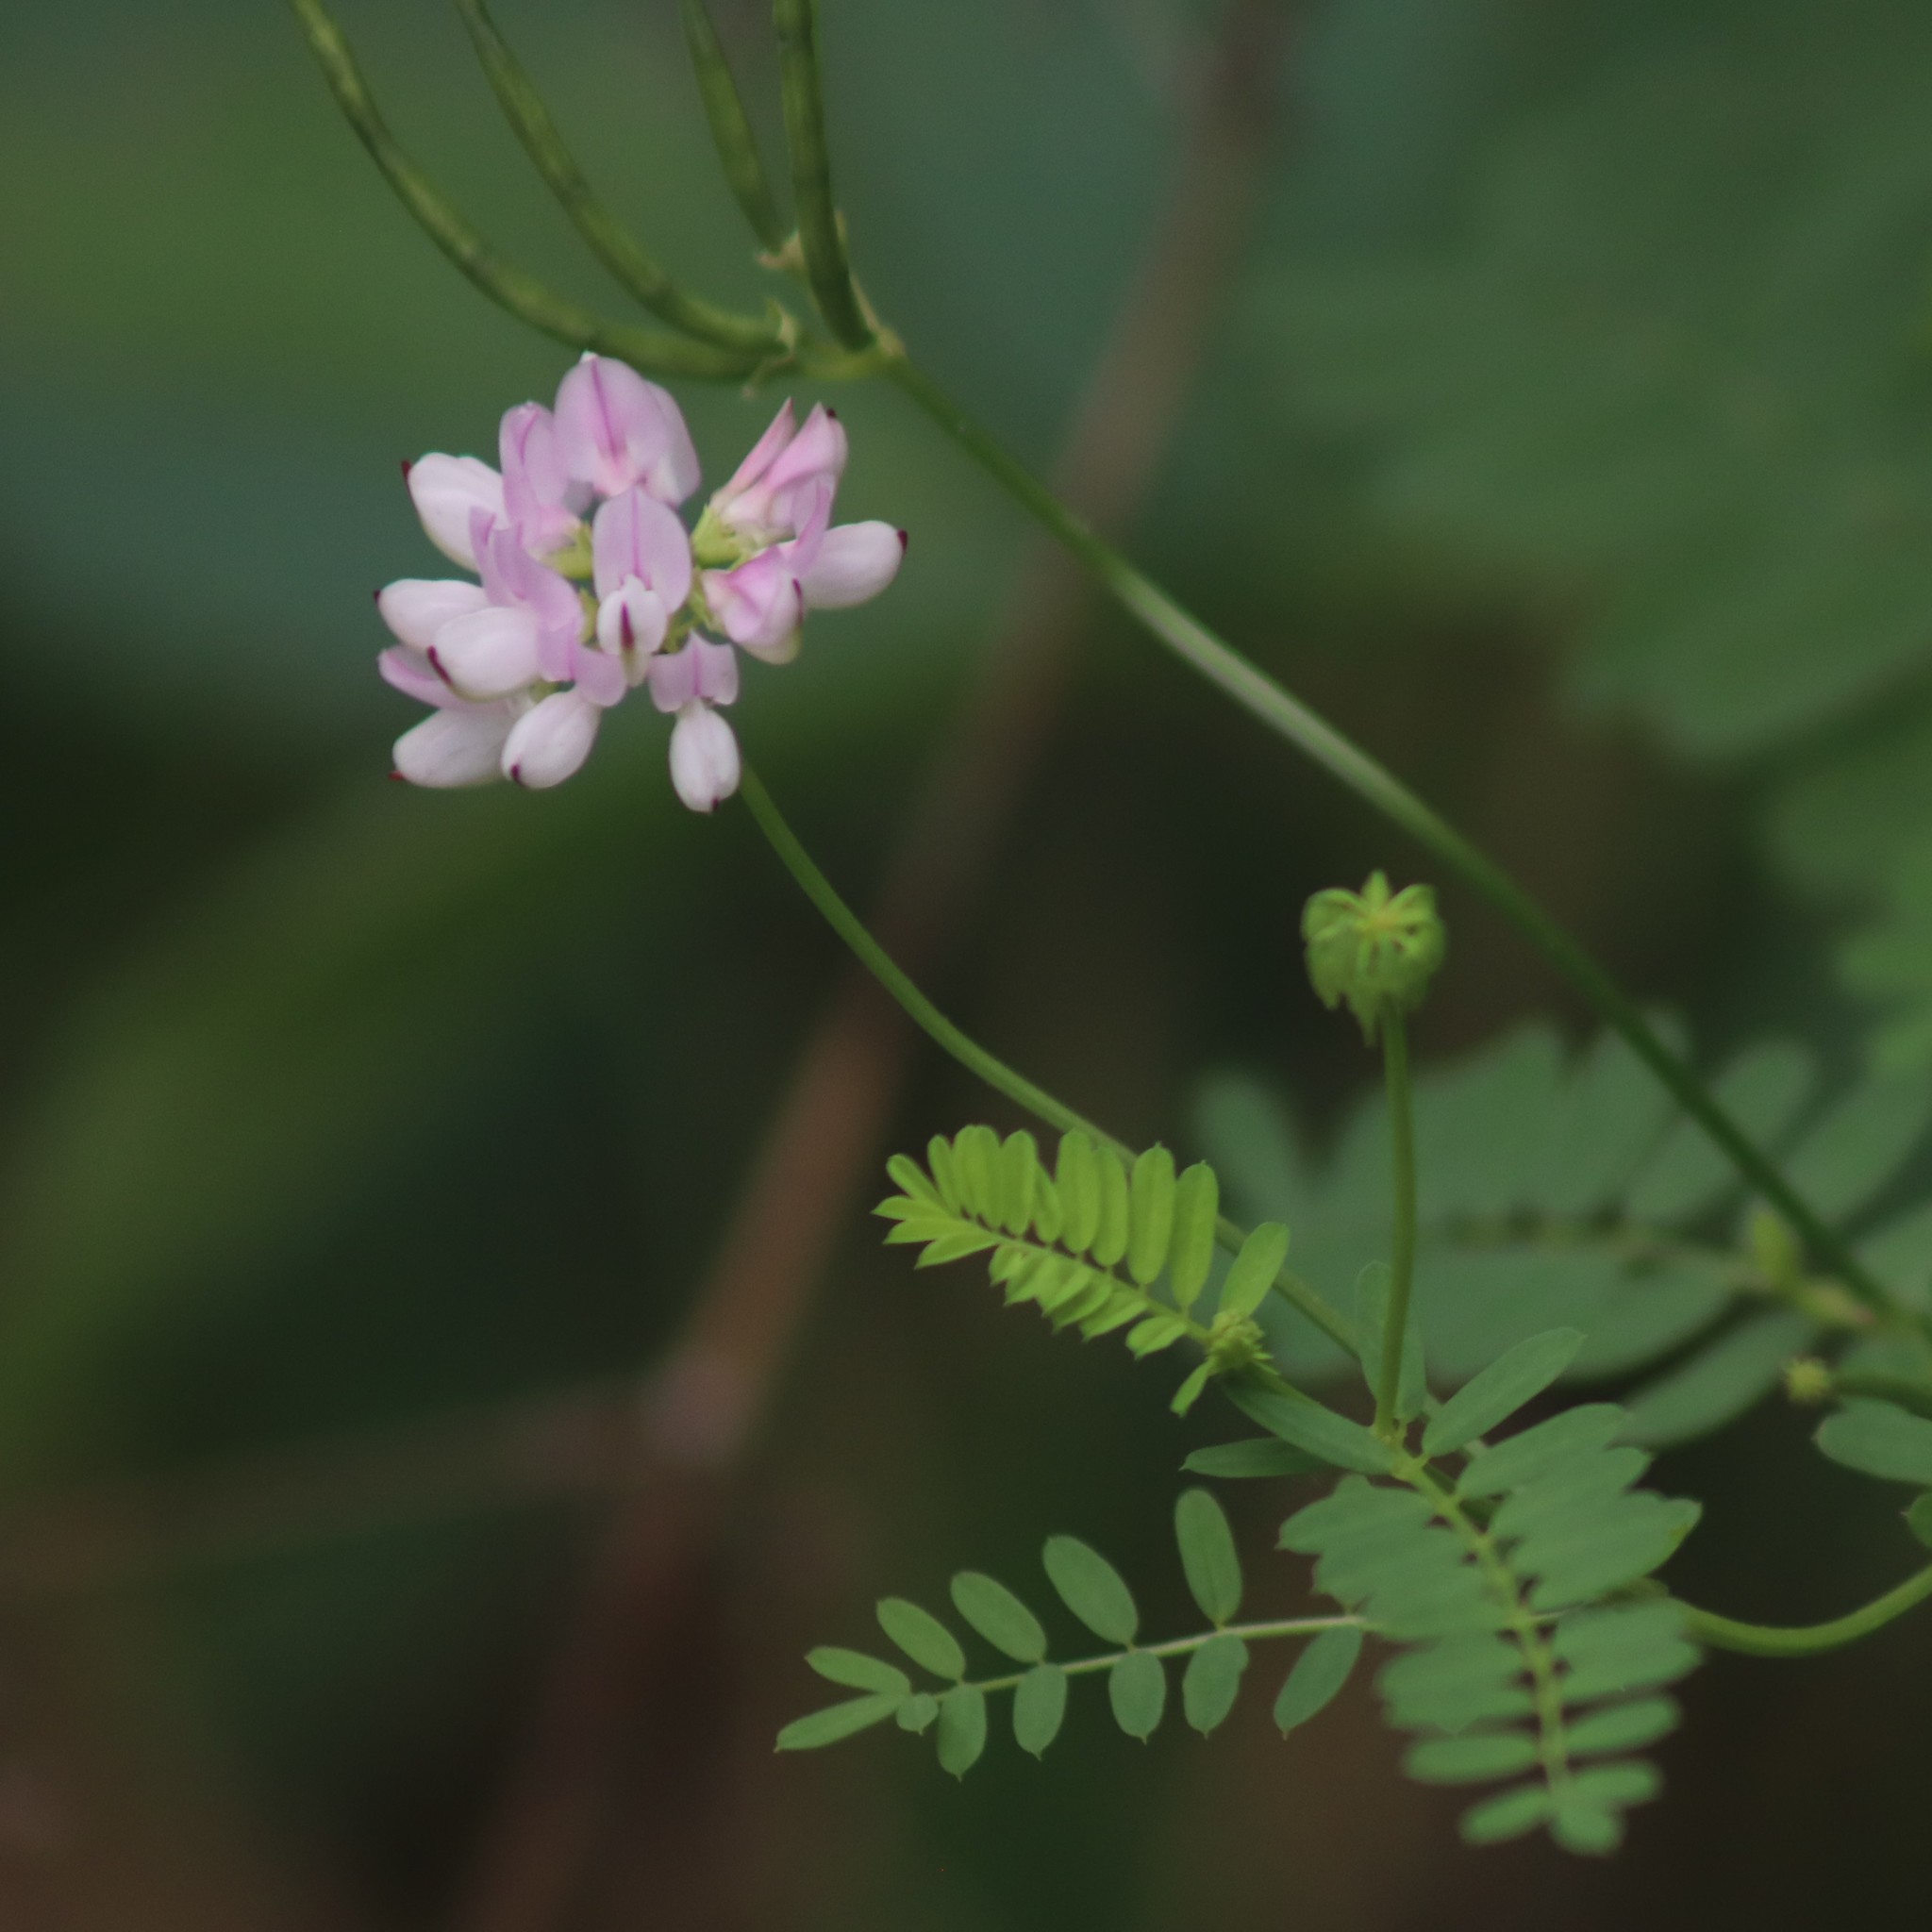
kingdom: Plantae
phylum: Tracheophyta
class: Magnoliopsida
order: Fabales
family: Fabaceae
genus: Coronilla
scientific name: Coronilla varia
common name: Crownvetch
